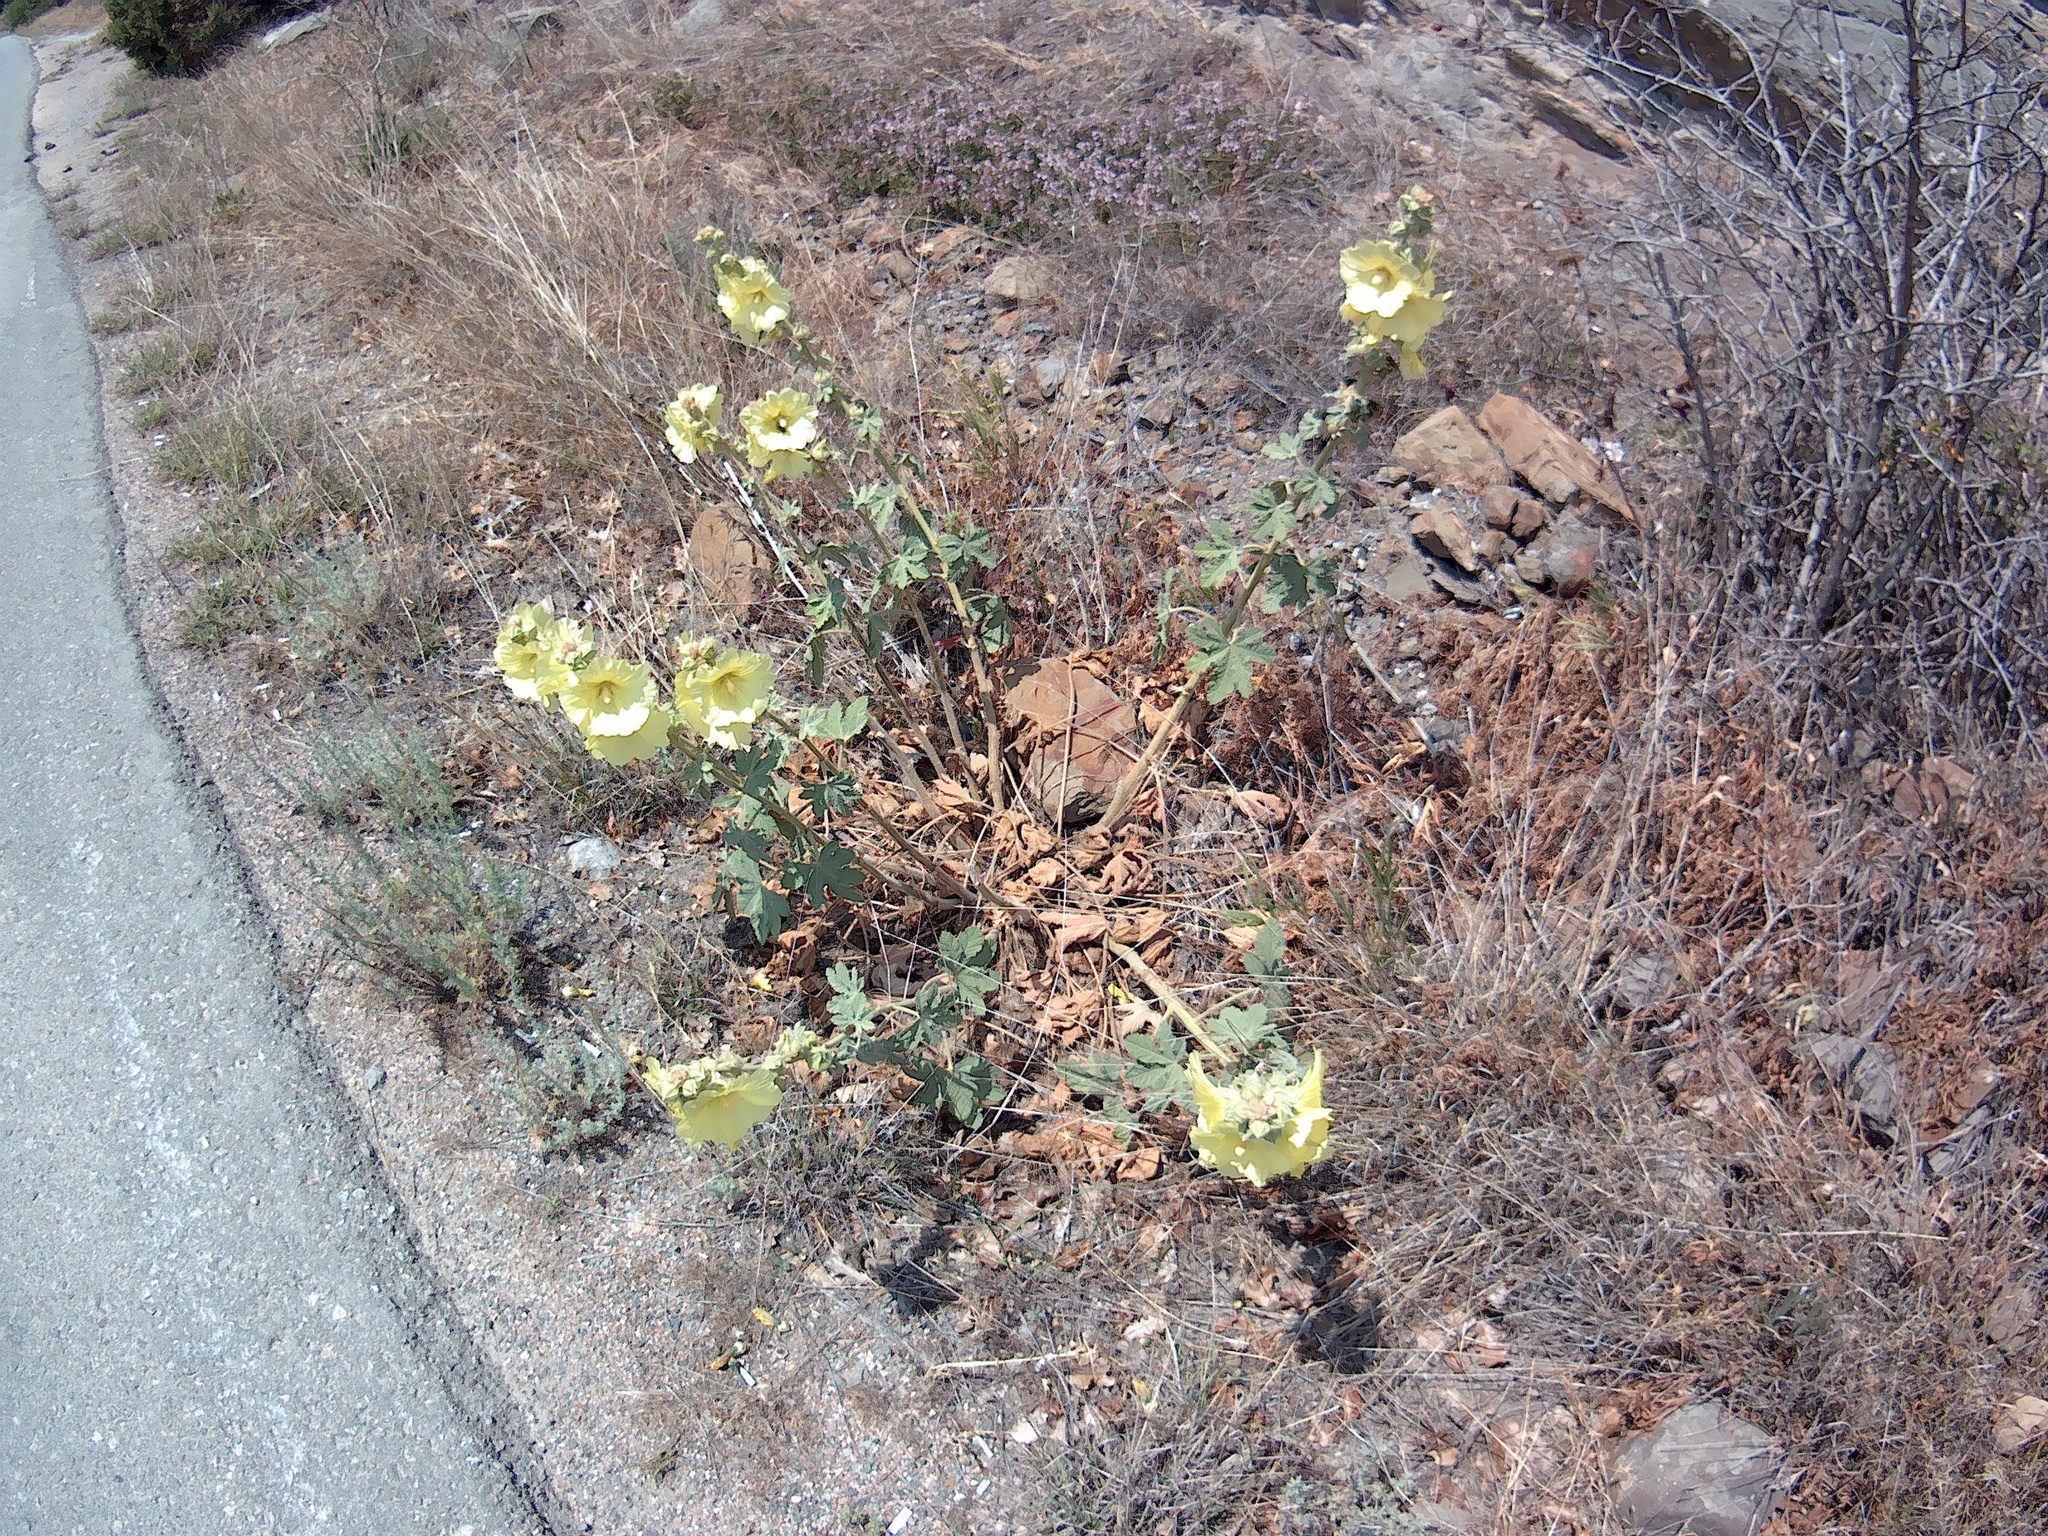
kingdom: Plantae
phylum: Tracheophyta
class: Magnoliopsida
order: Malvales
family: Malvaceae
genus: Alcea
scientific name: Alcea rugosa
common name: Russian hollyhock
